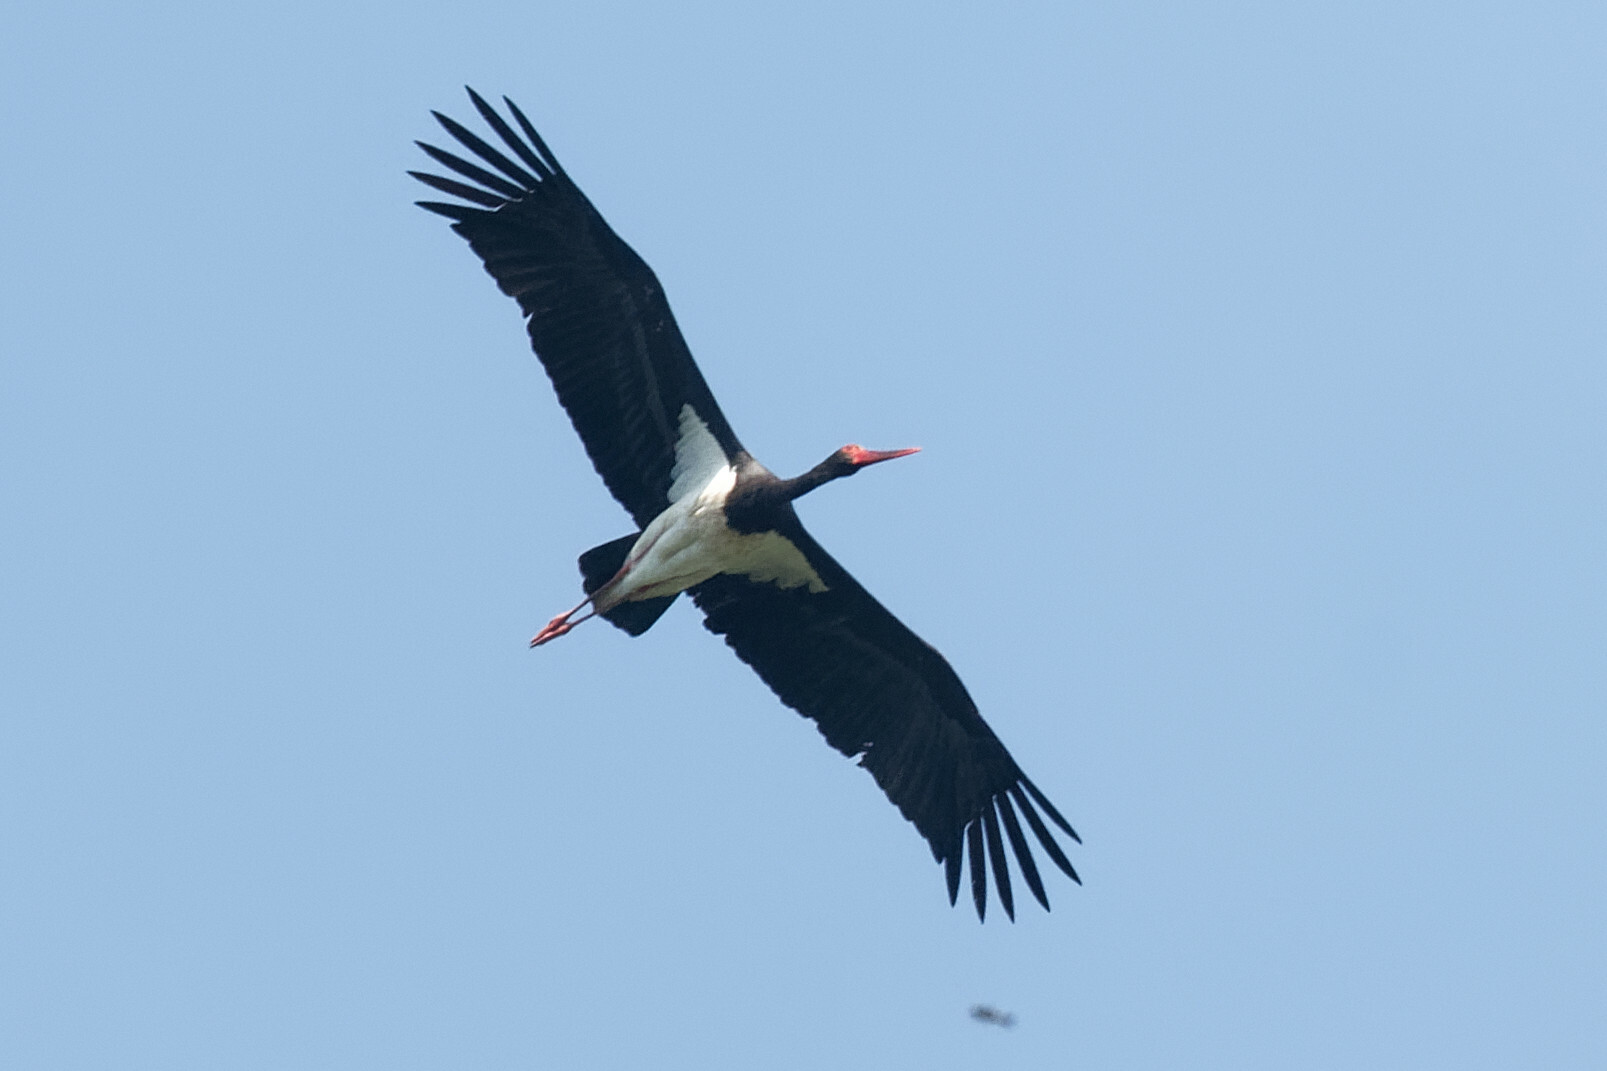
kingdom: Animalia
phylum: Chordata
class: Aves
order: Ciconiiformes
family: Ciconiidae
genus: Ciconia
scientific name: Ciconia nigra
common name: Black stork
